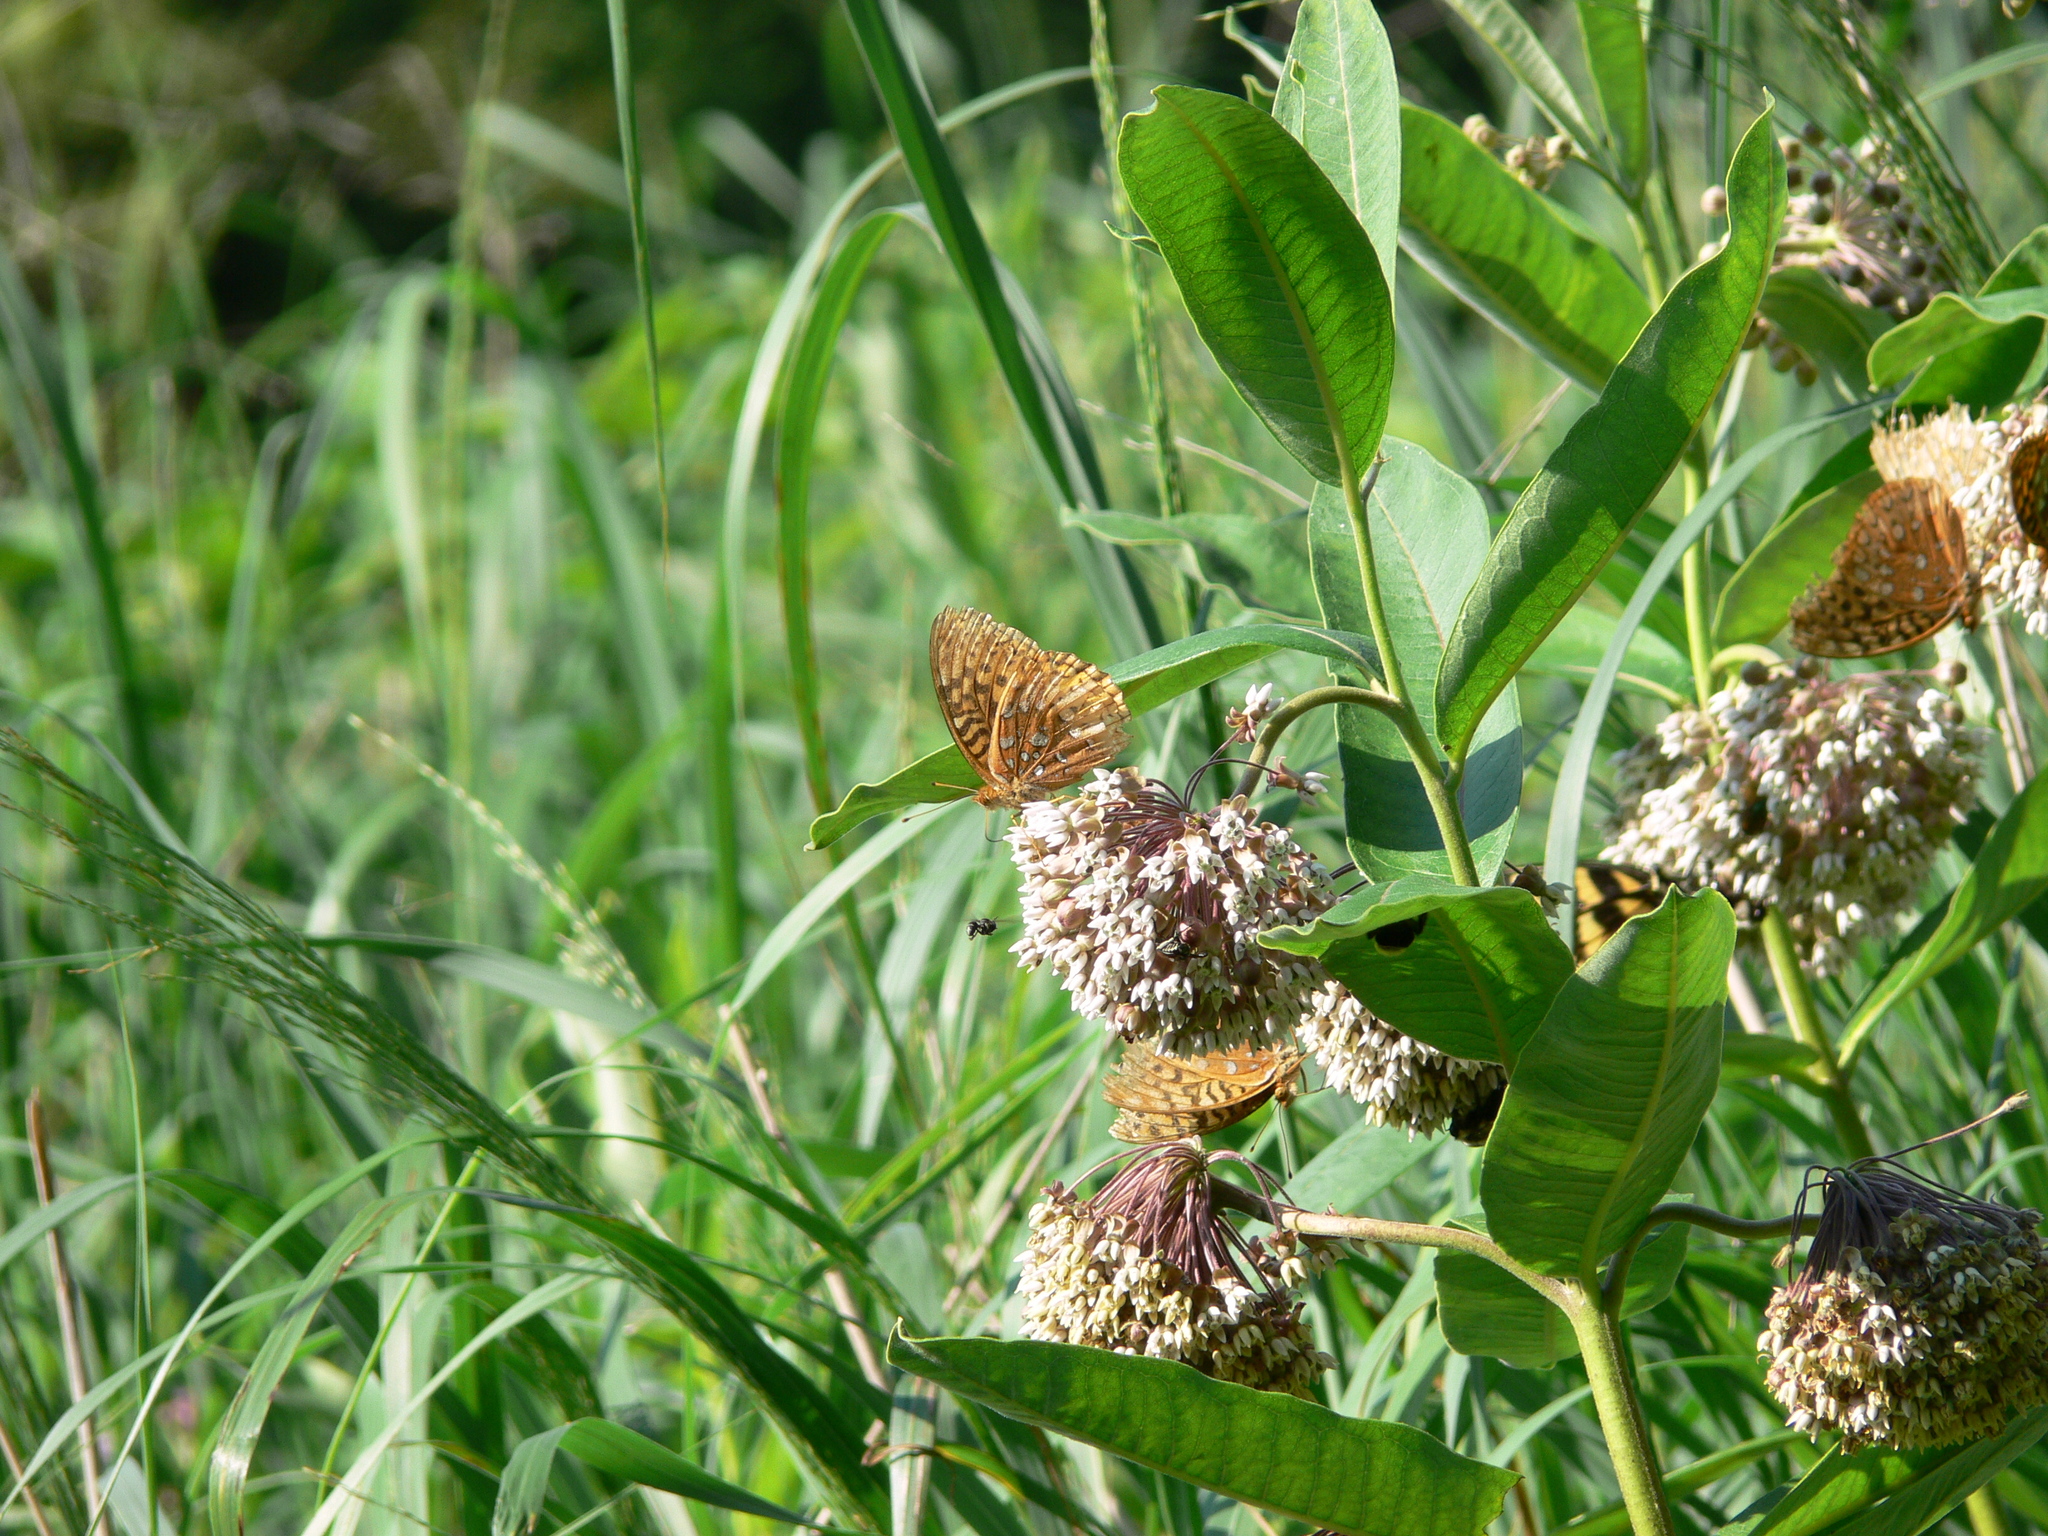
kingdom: Animalia
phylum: Arthropoda
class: Insecta
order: Lepidoptera
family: Nymphalidae
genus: Speyeria
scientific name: Speyeria cybele
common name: Great spangled fritillary
